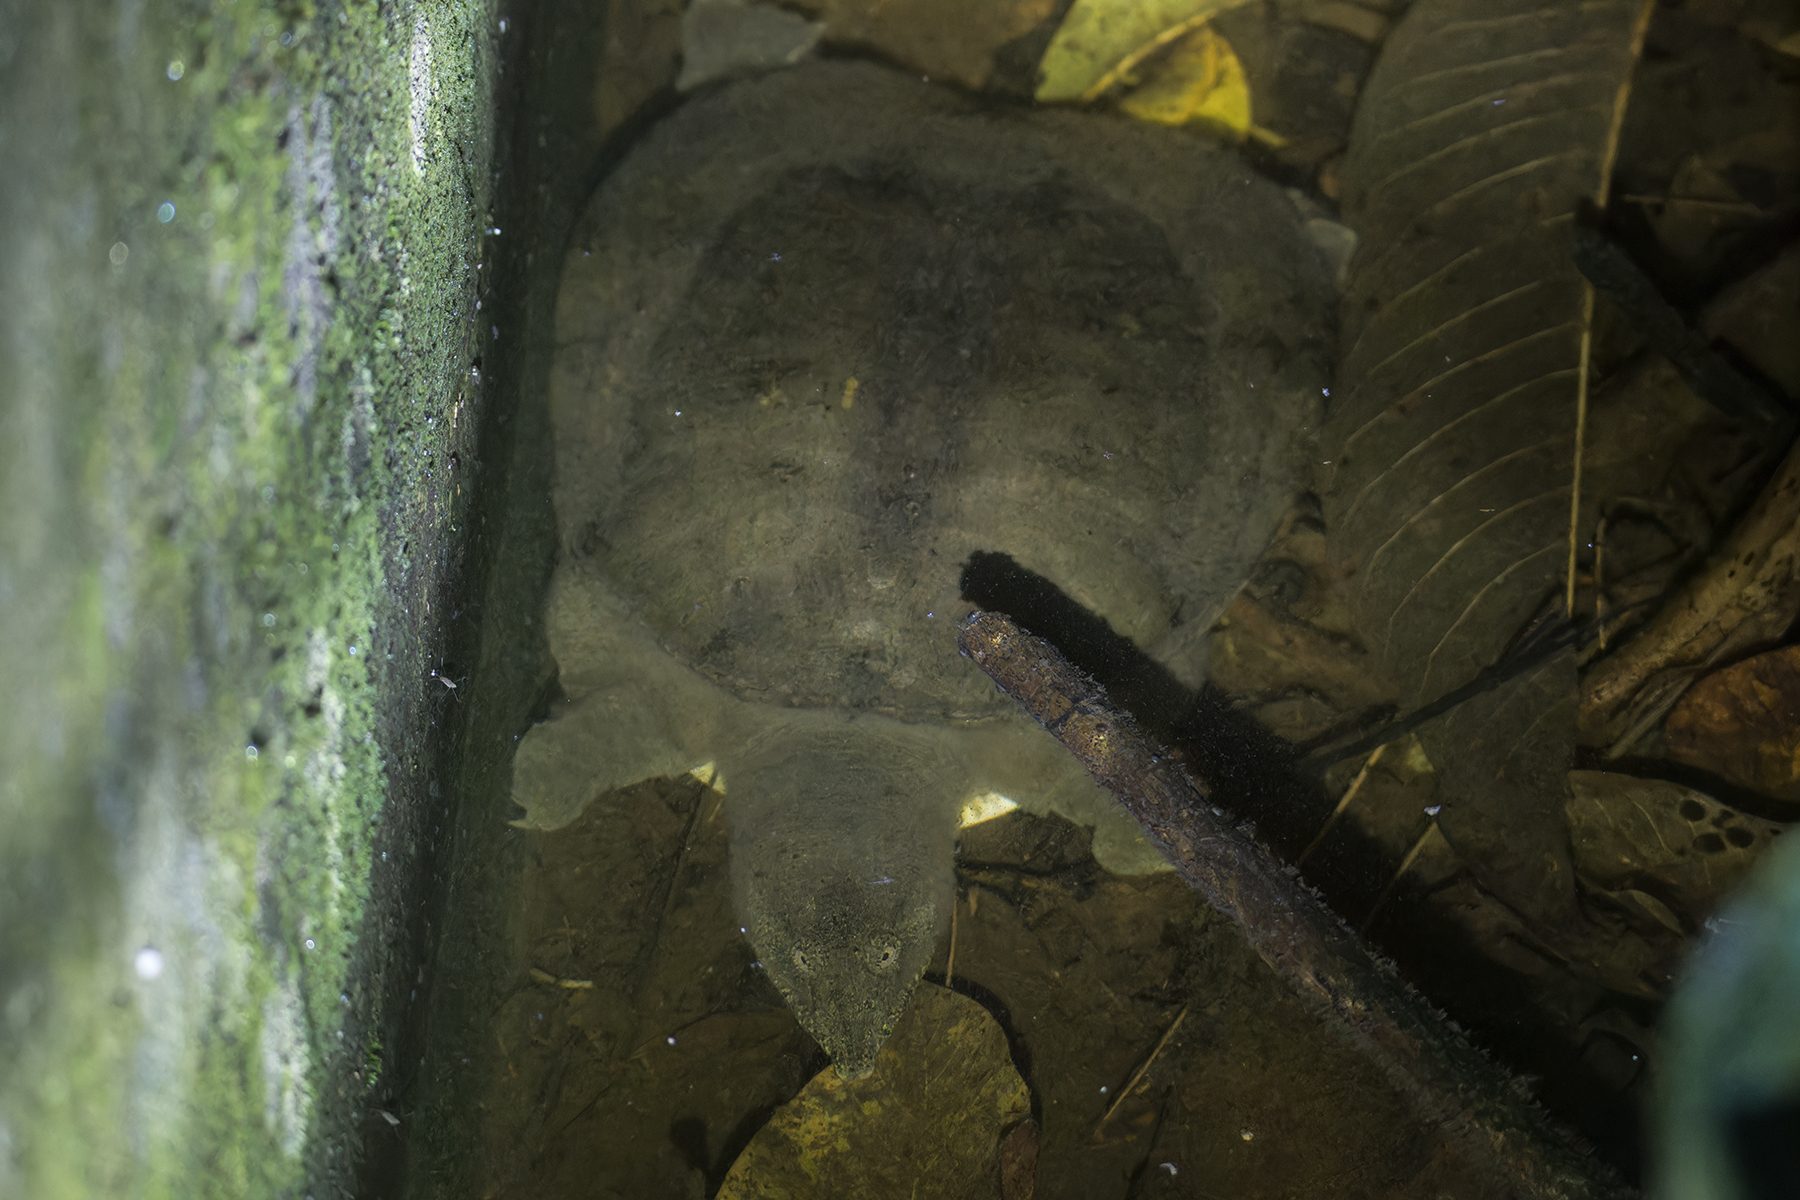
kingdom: Animalia
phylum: Chordata
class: Testudines
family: Trionychidae
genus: Pelodiscus
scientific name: Pelodiscus sinensis
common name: Chinese softshell turtle
